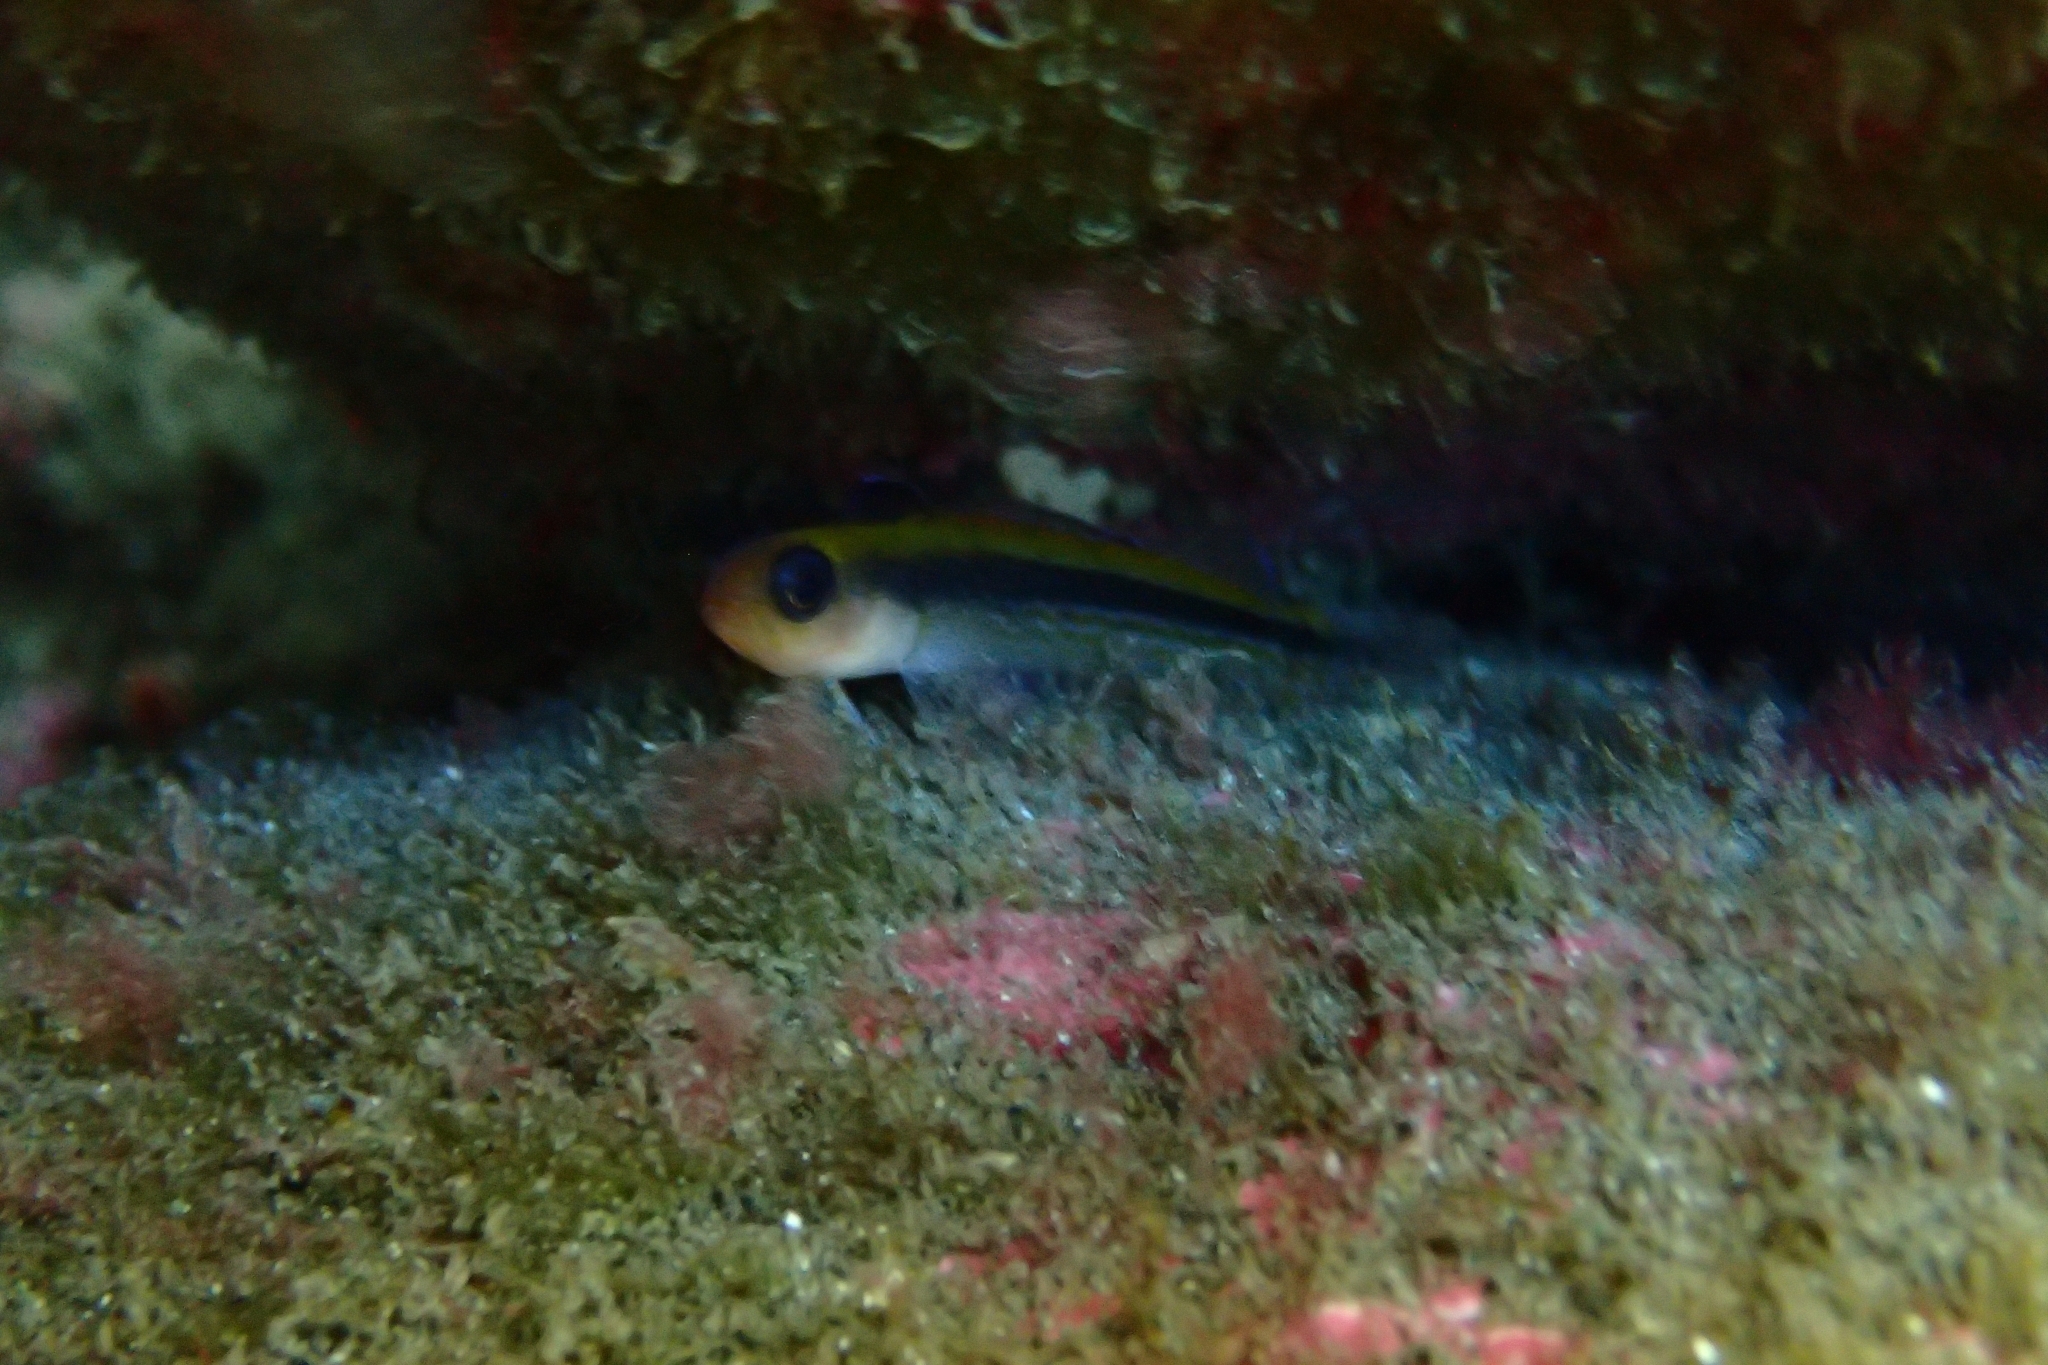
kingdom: Animalia
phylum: Chordata
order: Perciformes
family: Tripterygiidae
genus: Forsterygion
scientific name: Forsterygion maryannae
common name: Oblique-swimming triplefin
